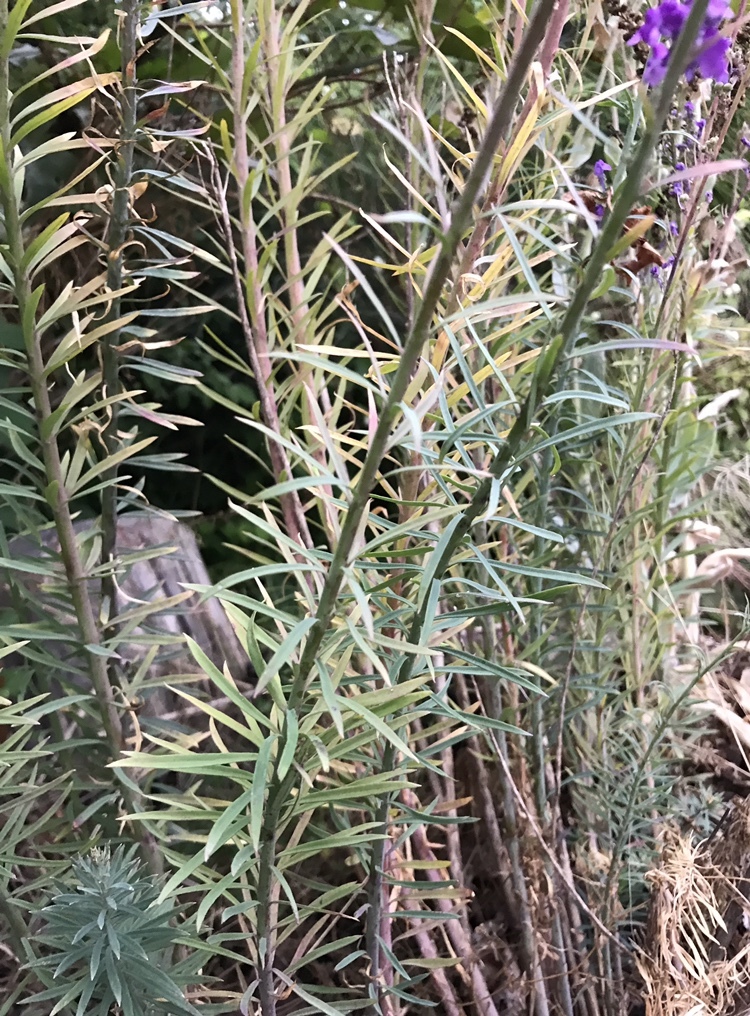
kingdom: Plantae
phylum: Tracheophyta
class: Magnoliopsida
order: Lamiales
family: Plantaginaceae
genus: Linaria
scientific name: Linaria purpurea
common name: Purple toadflax
